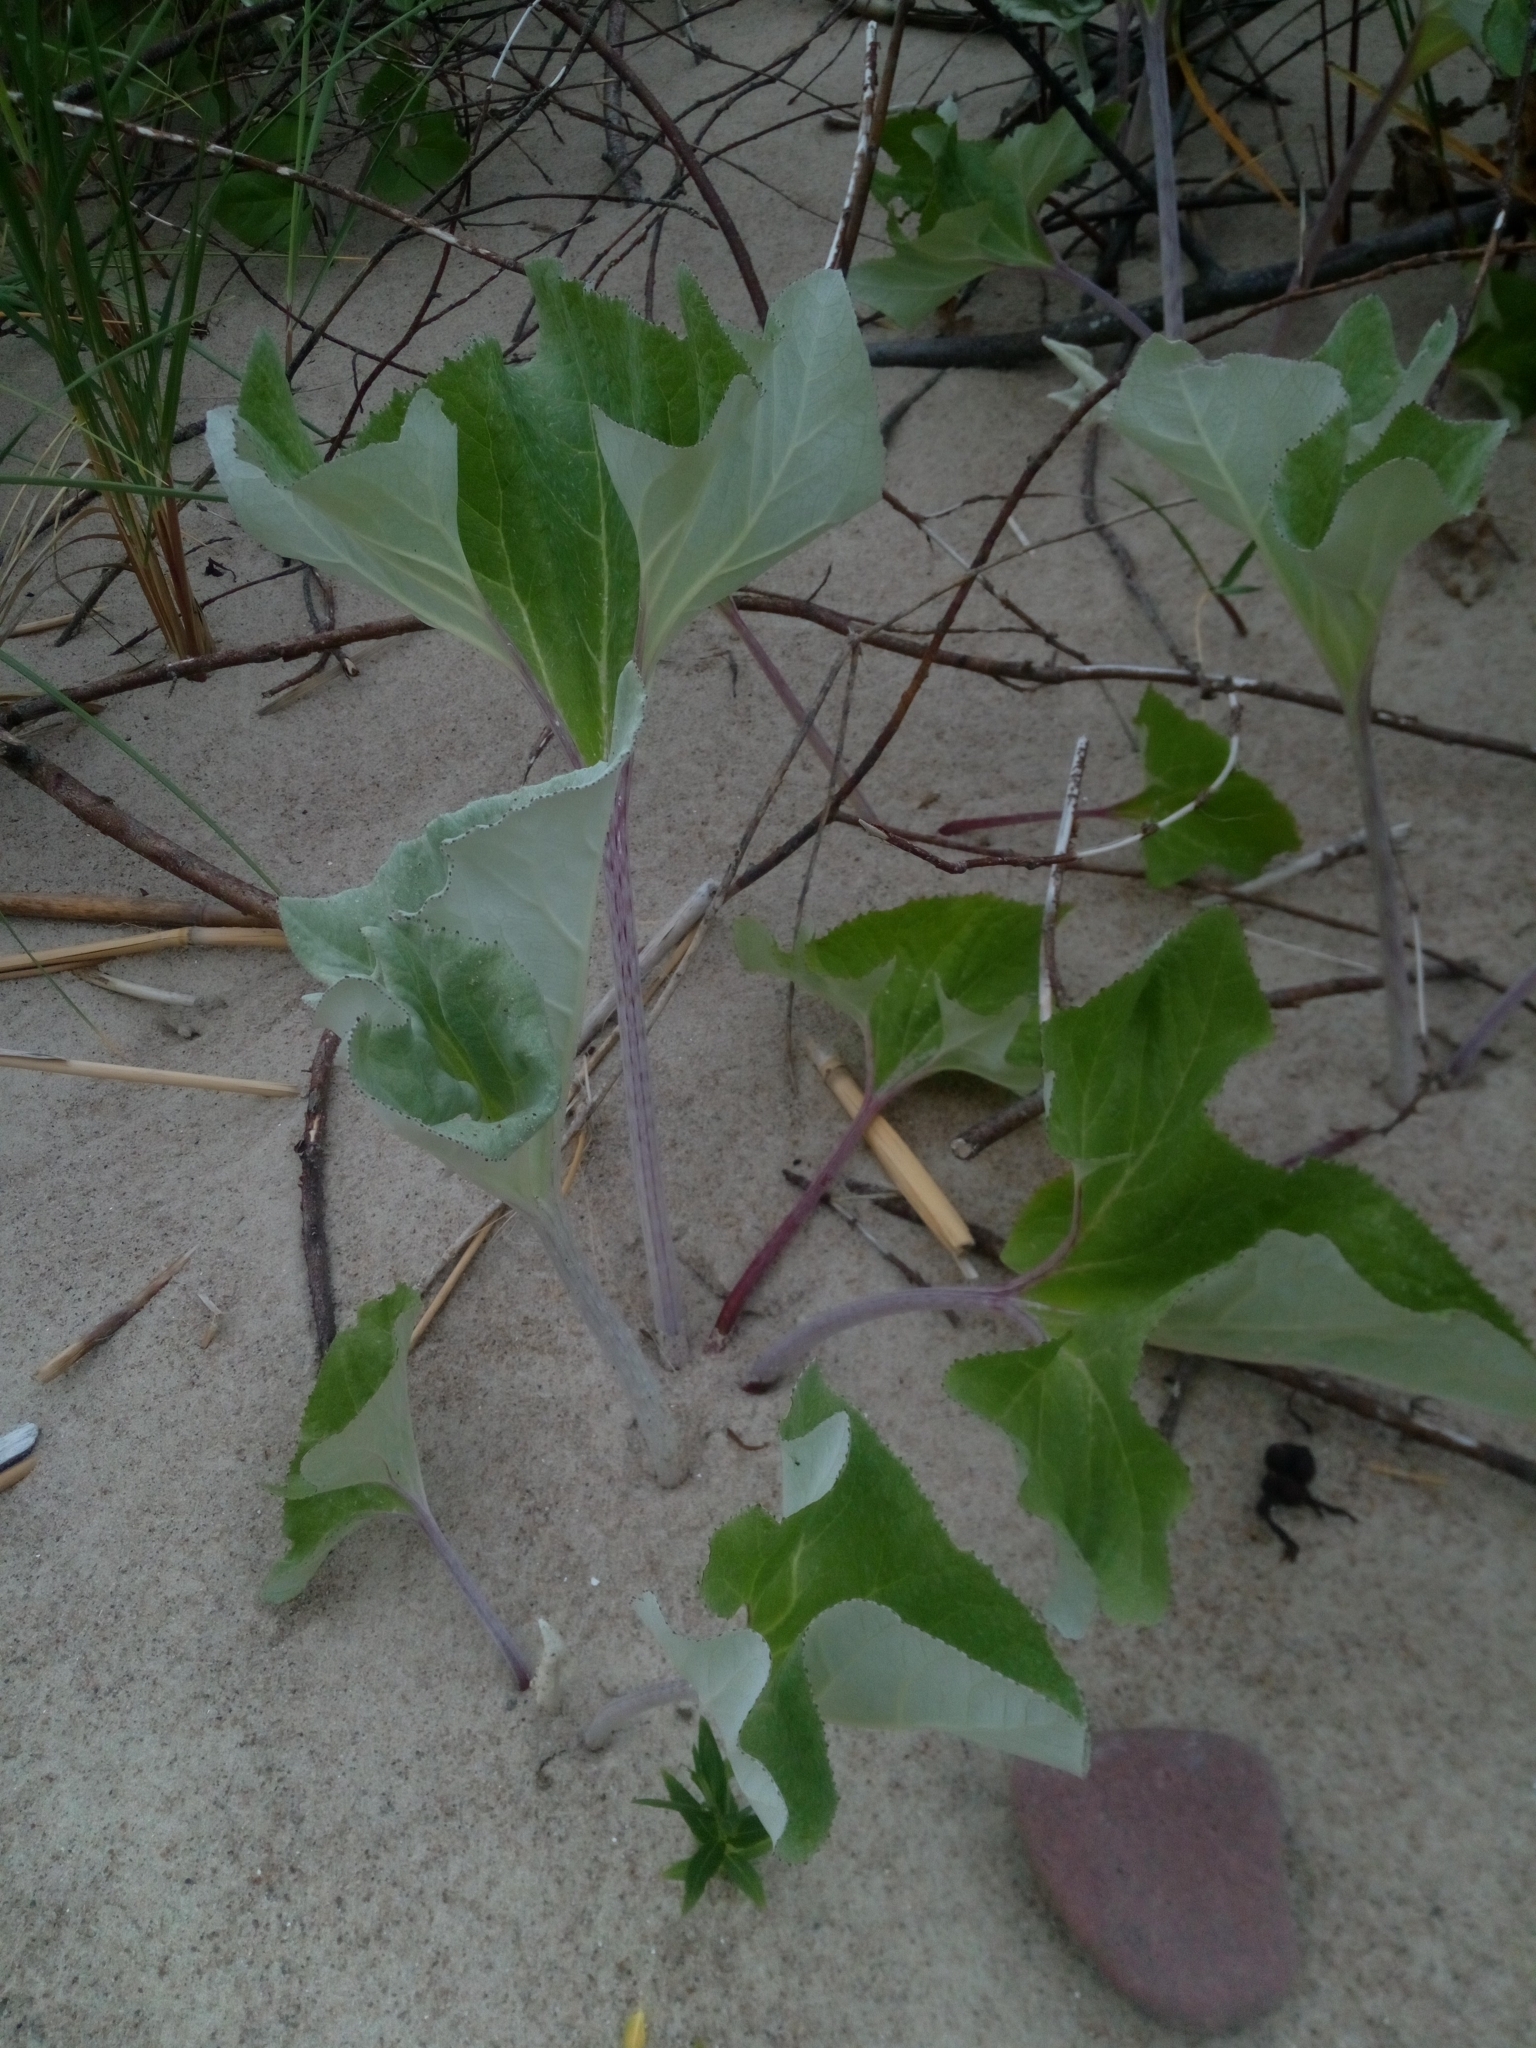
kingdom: Plantae
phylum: Tracheophyta
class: Magnoliopsida
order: Asterales
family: Asteraceae
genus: Petasites
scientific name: Petasites spurius
